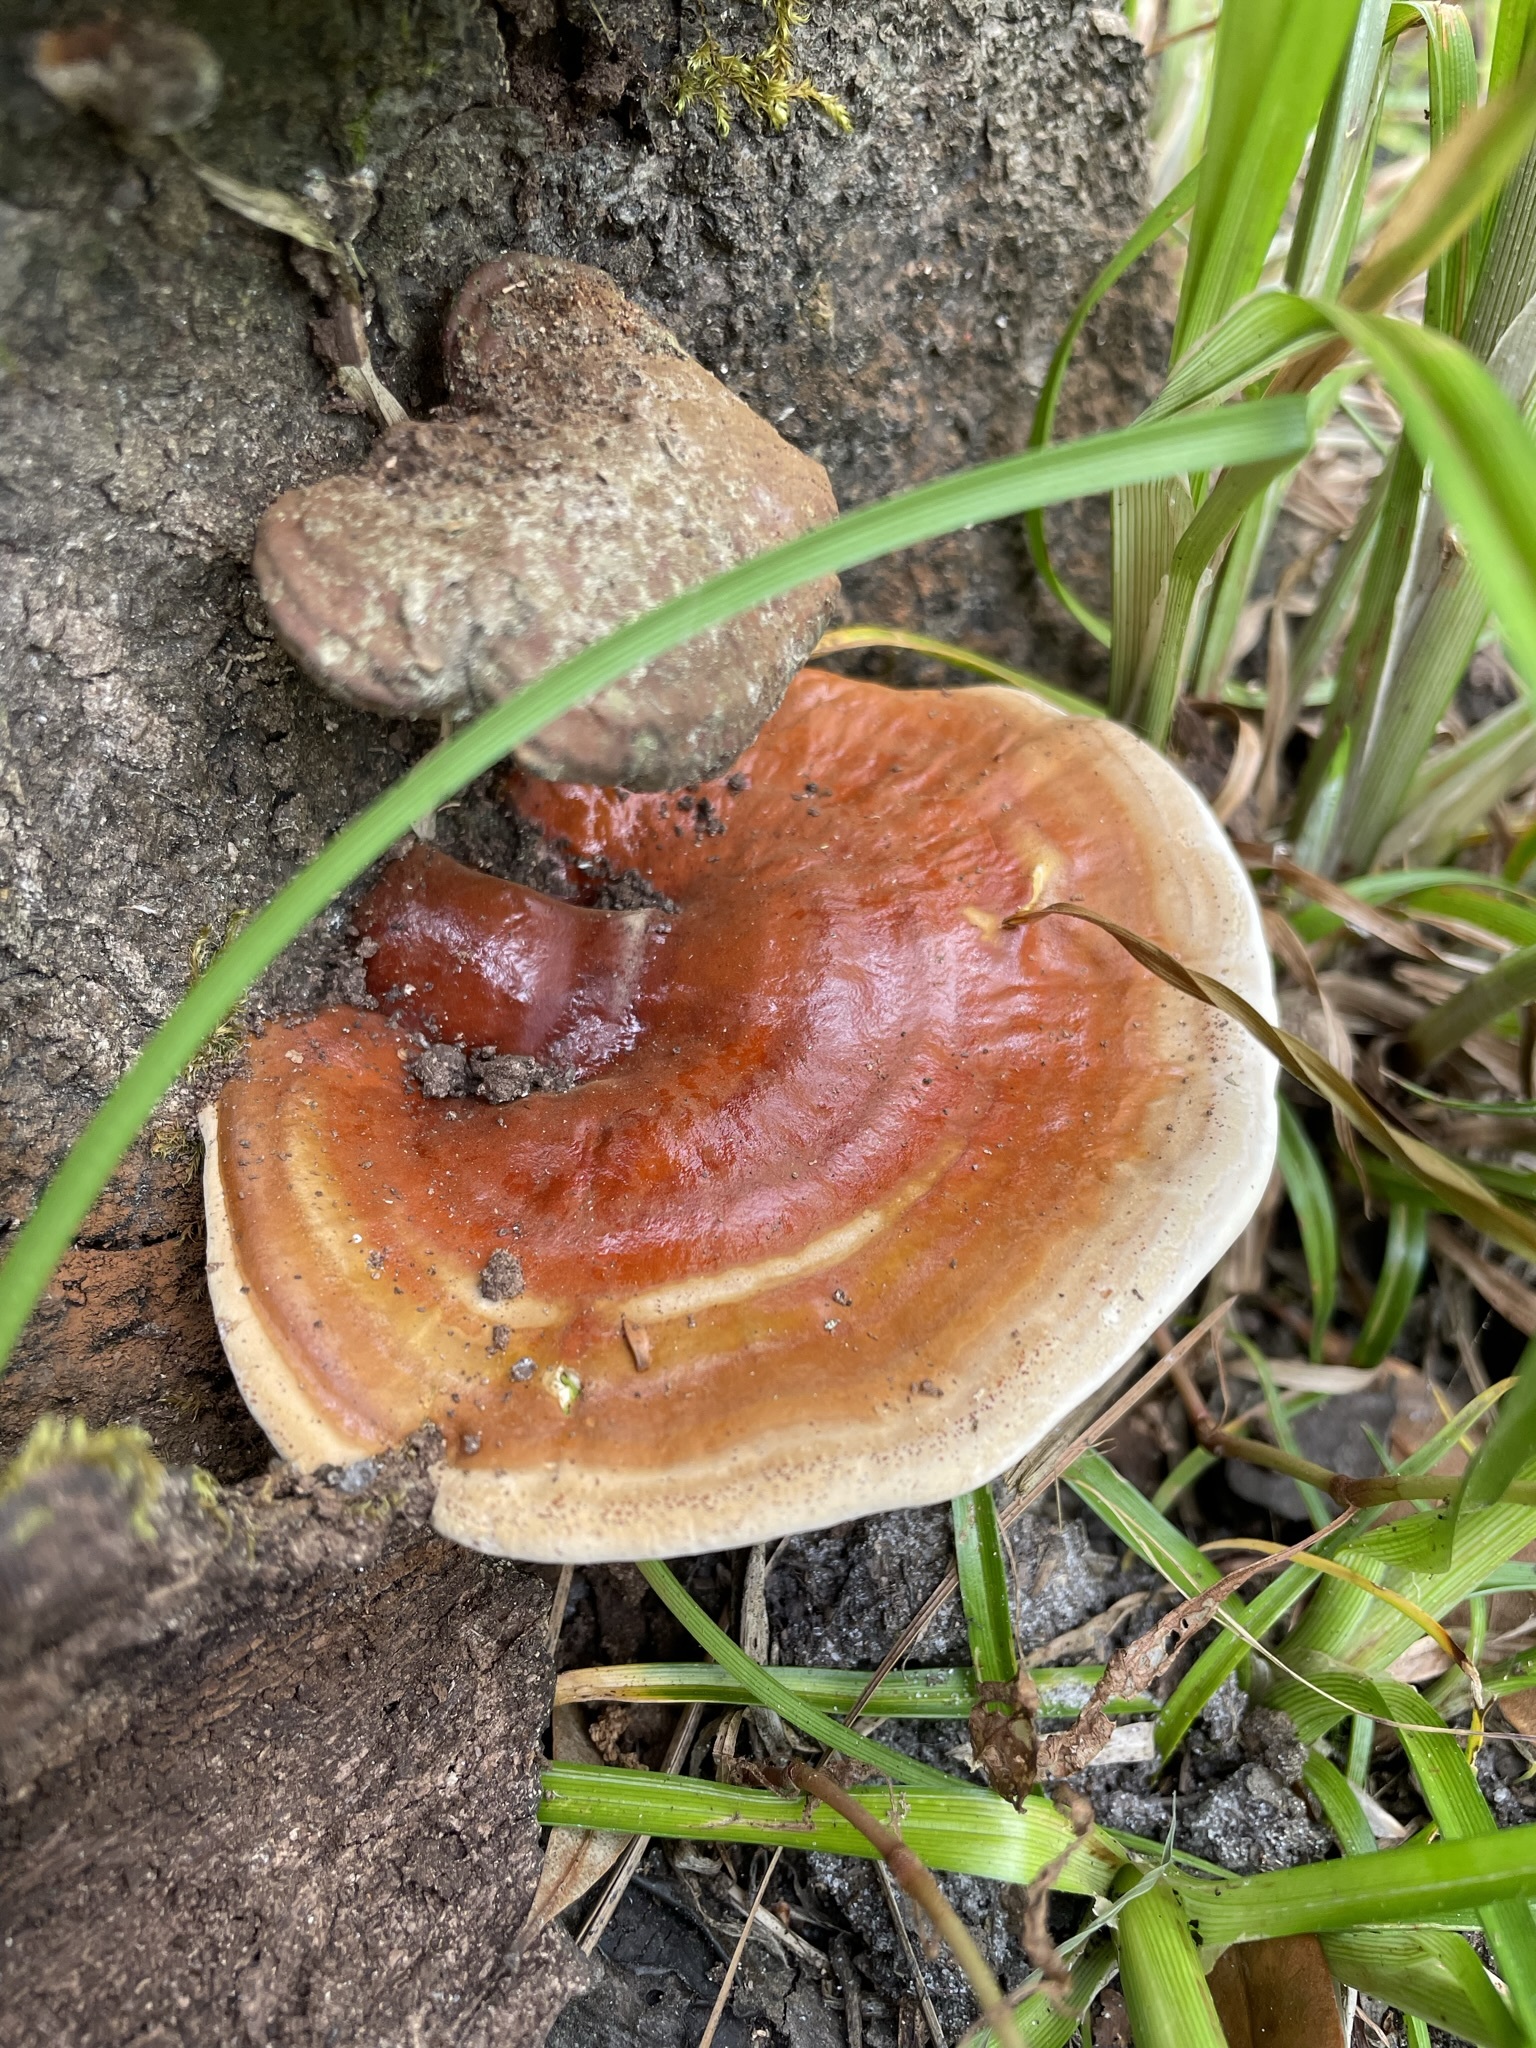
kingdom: Fungi
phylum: Basidiomycota
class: Agaricomycetes
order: Polyporales
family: Polyporaceae
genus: Ganoderma
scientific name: Ganoderma tsugae
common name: Hemlock varnish shelf
